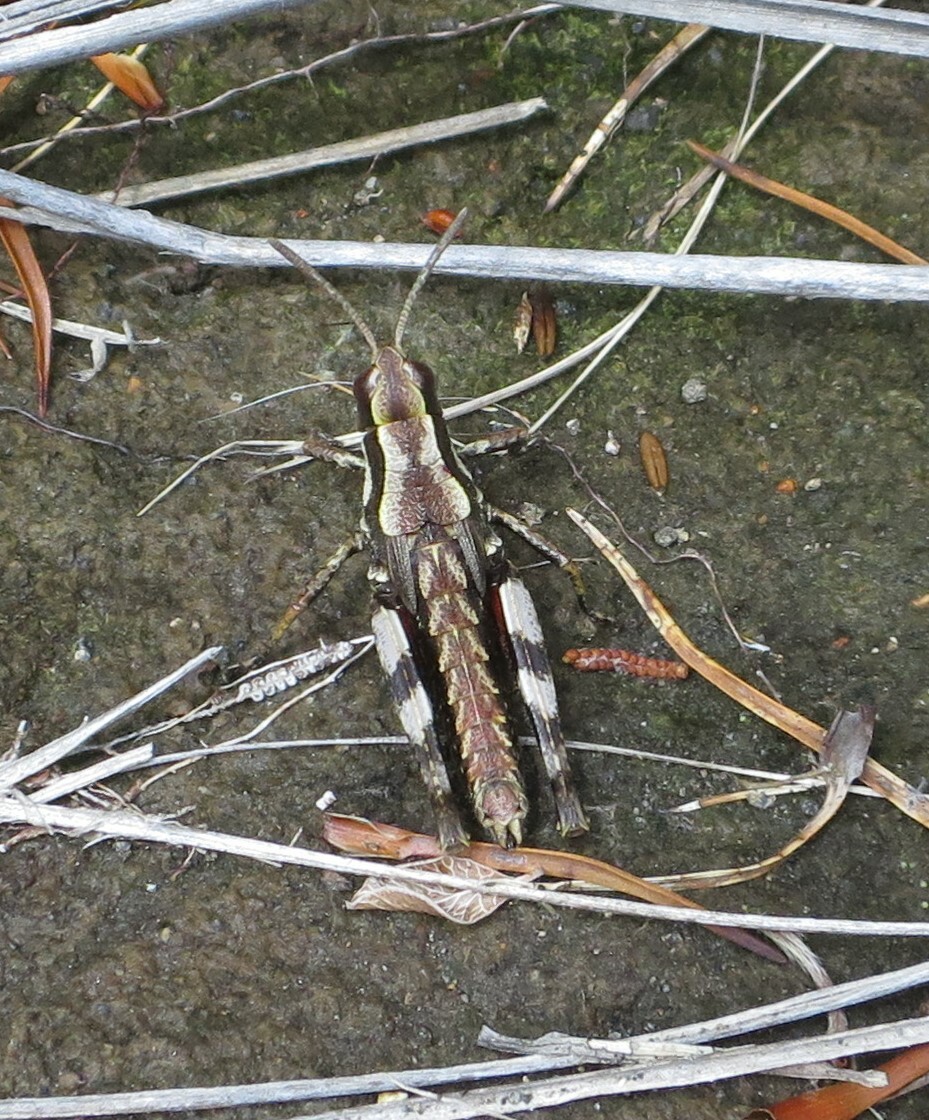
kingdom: Animalia
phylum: Arthropoda
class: Insecta
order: Orthoptera
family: Acrididae
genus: Sigaus
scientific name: Sigaus piliferus
